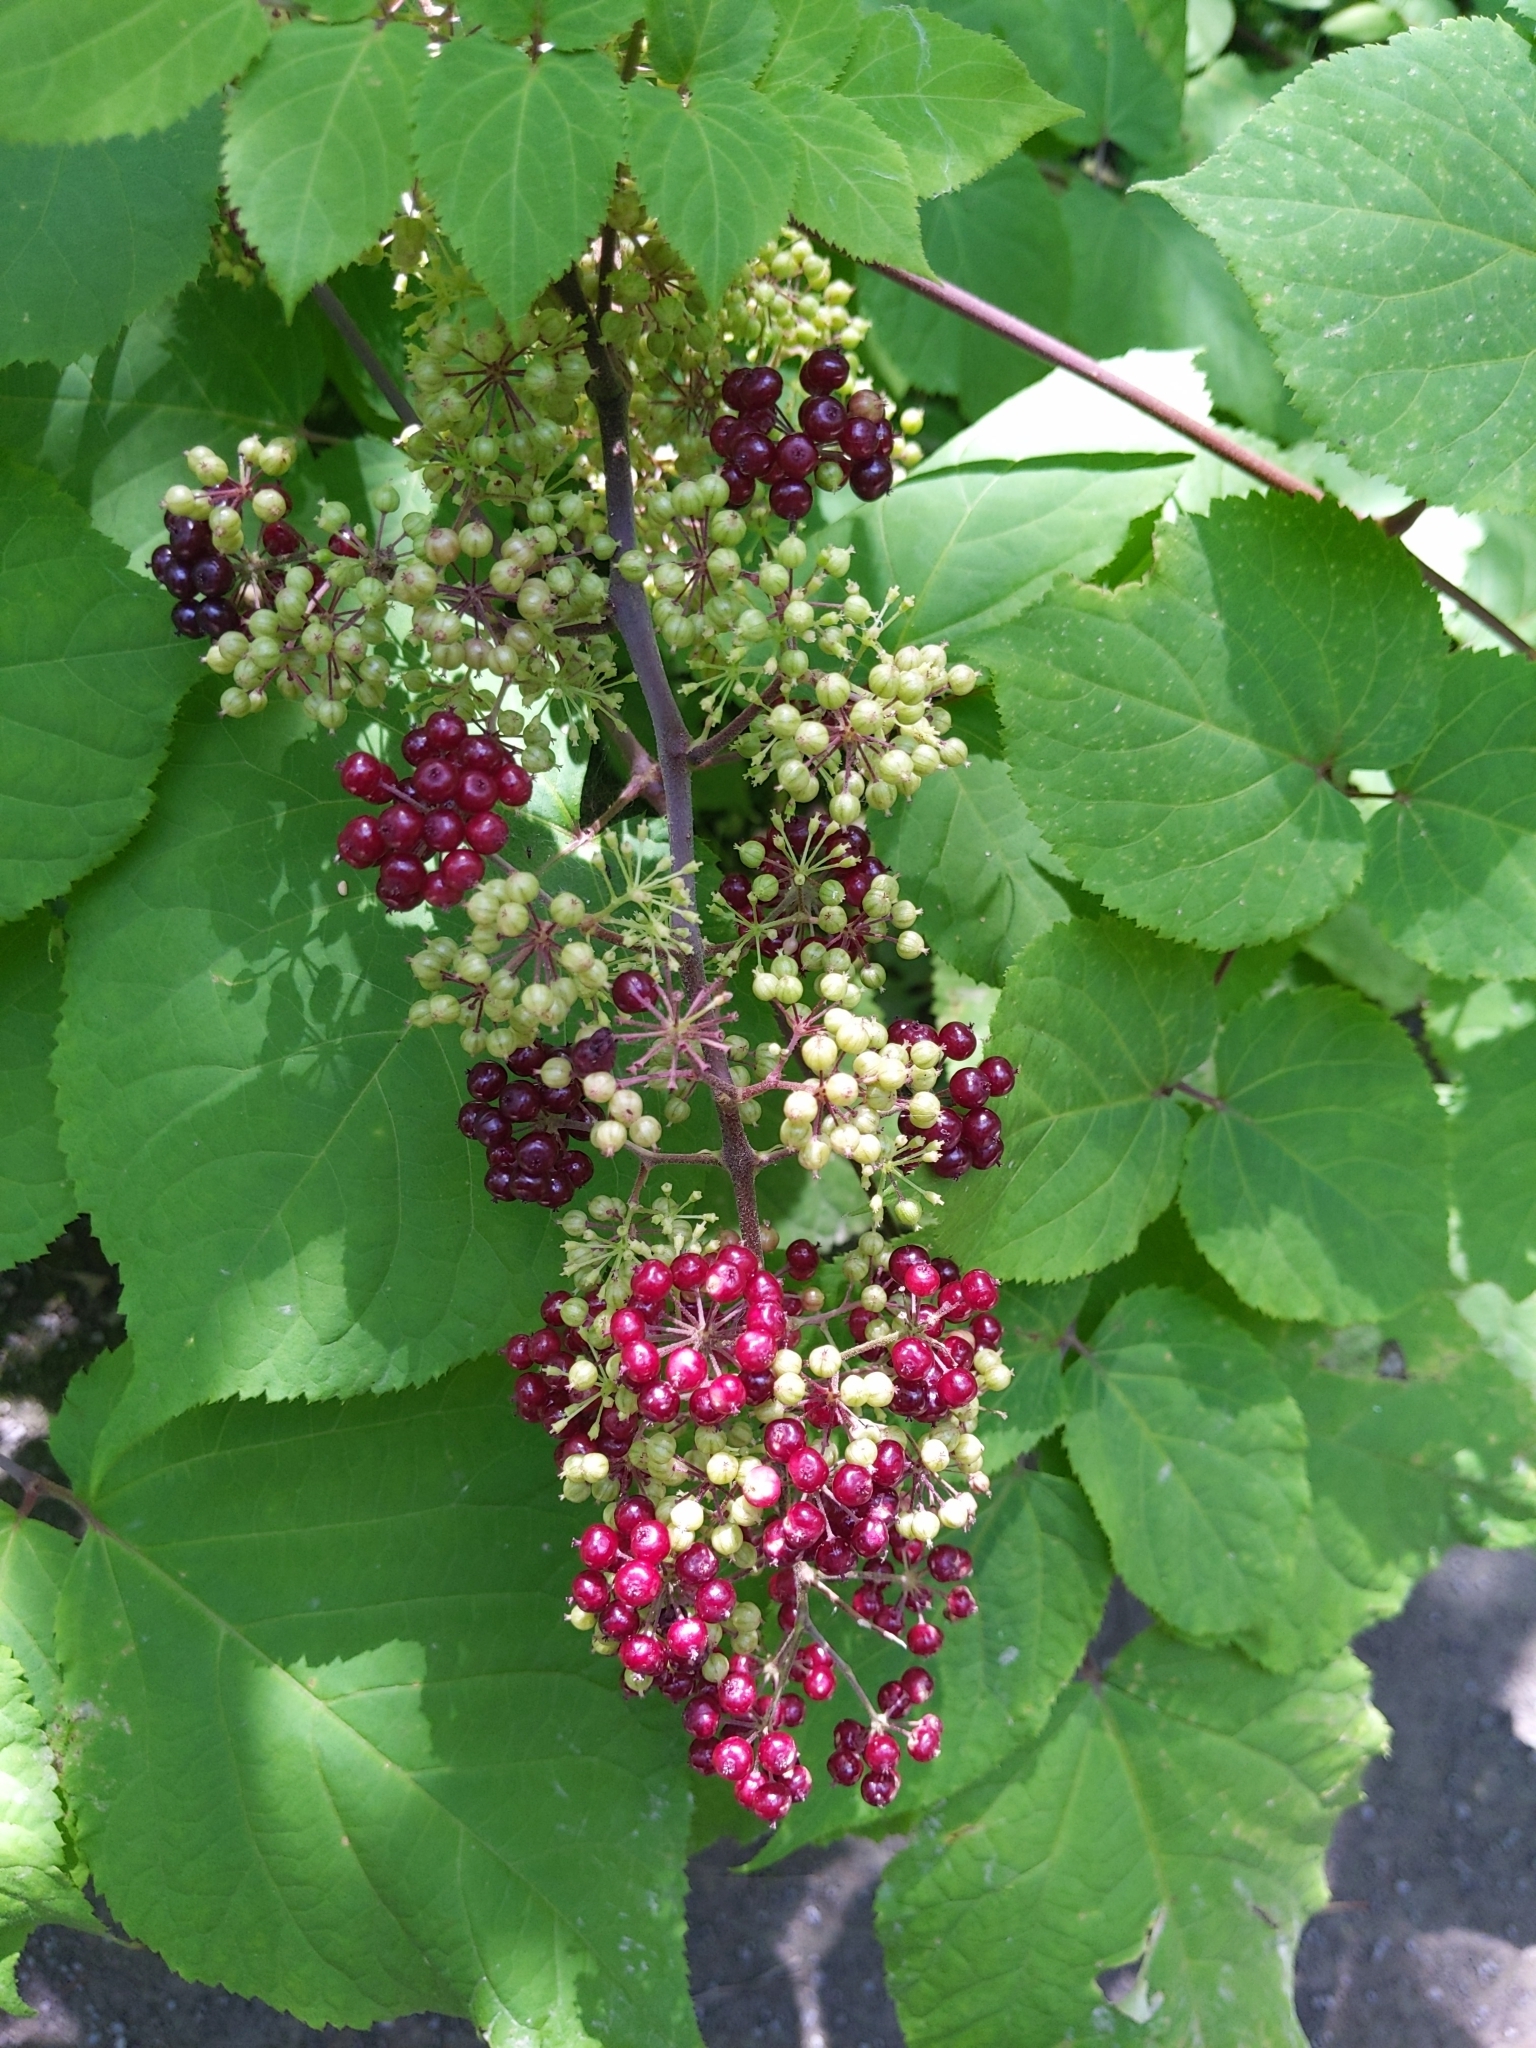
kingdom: Plantae
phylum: Tracheophyta
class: Magnoliopsida
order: Apiales
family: Araliaceae
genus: Aralia
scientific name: Aralia racemosa
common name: American-spikenard
